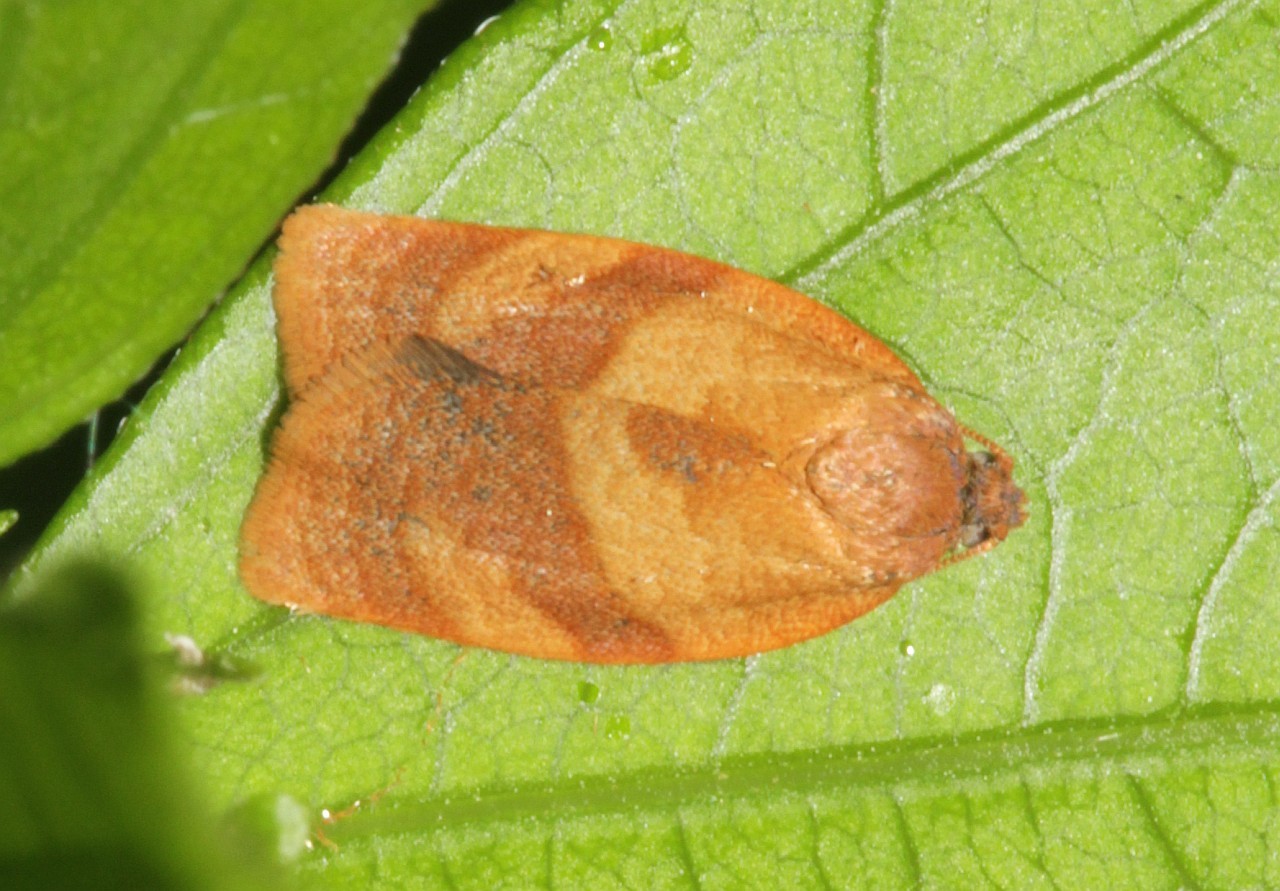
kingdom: Animalia
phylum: Arthropoda
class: Insecta
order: Lepidoptera
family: Tortricidae
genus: Cacoecimorpha
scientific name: Cacoecimorpha pronubana
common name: Carnation tortrix
